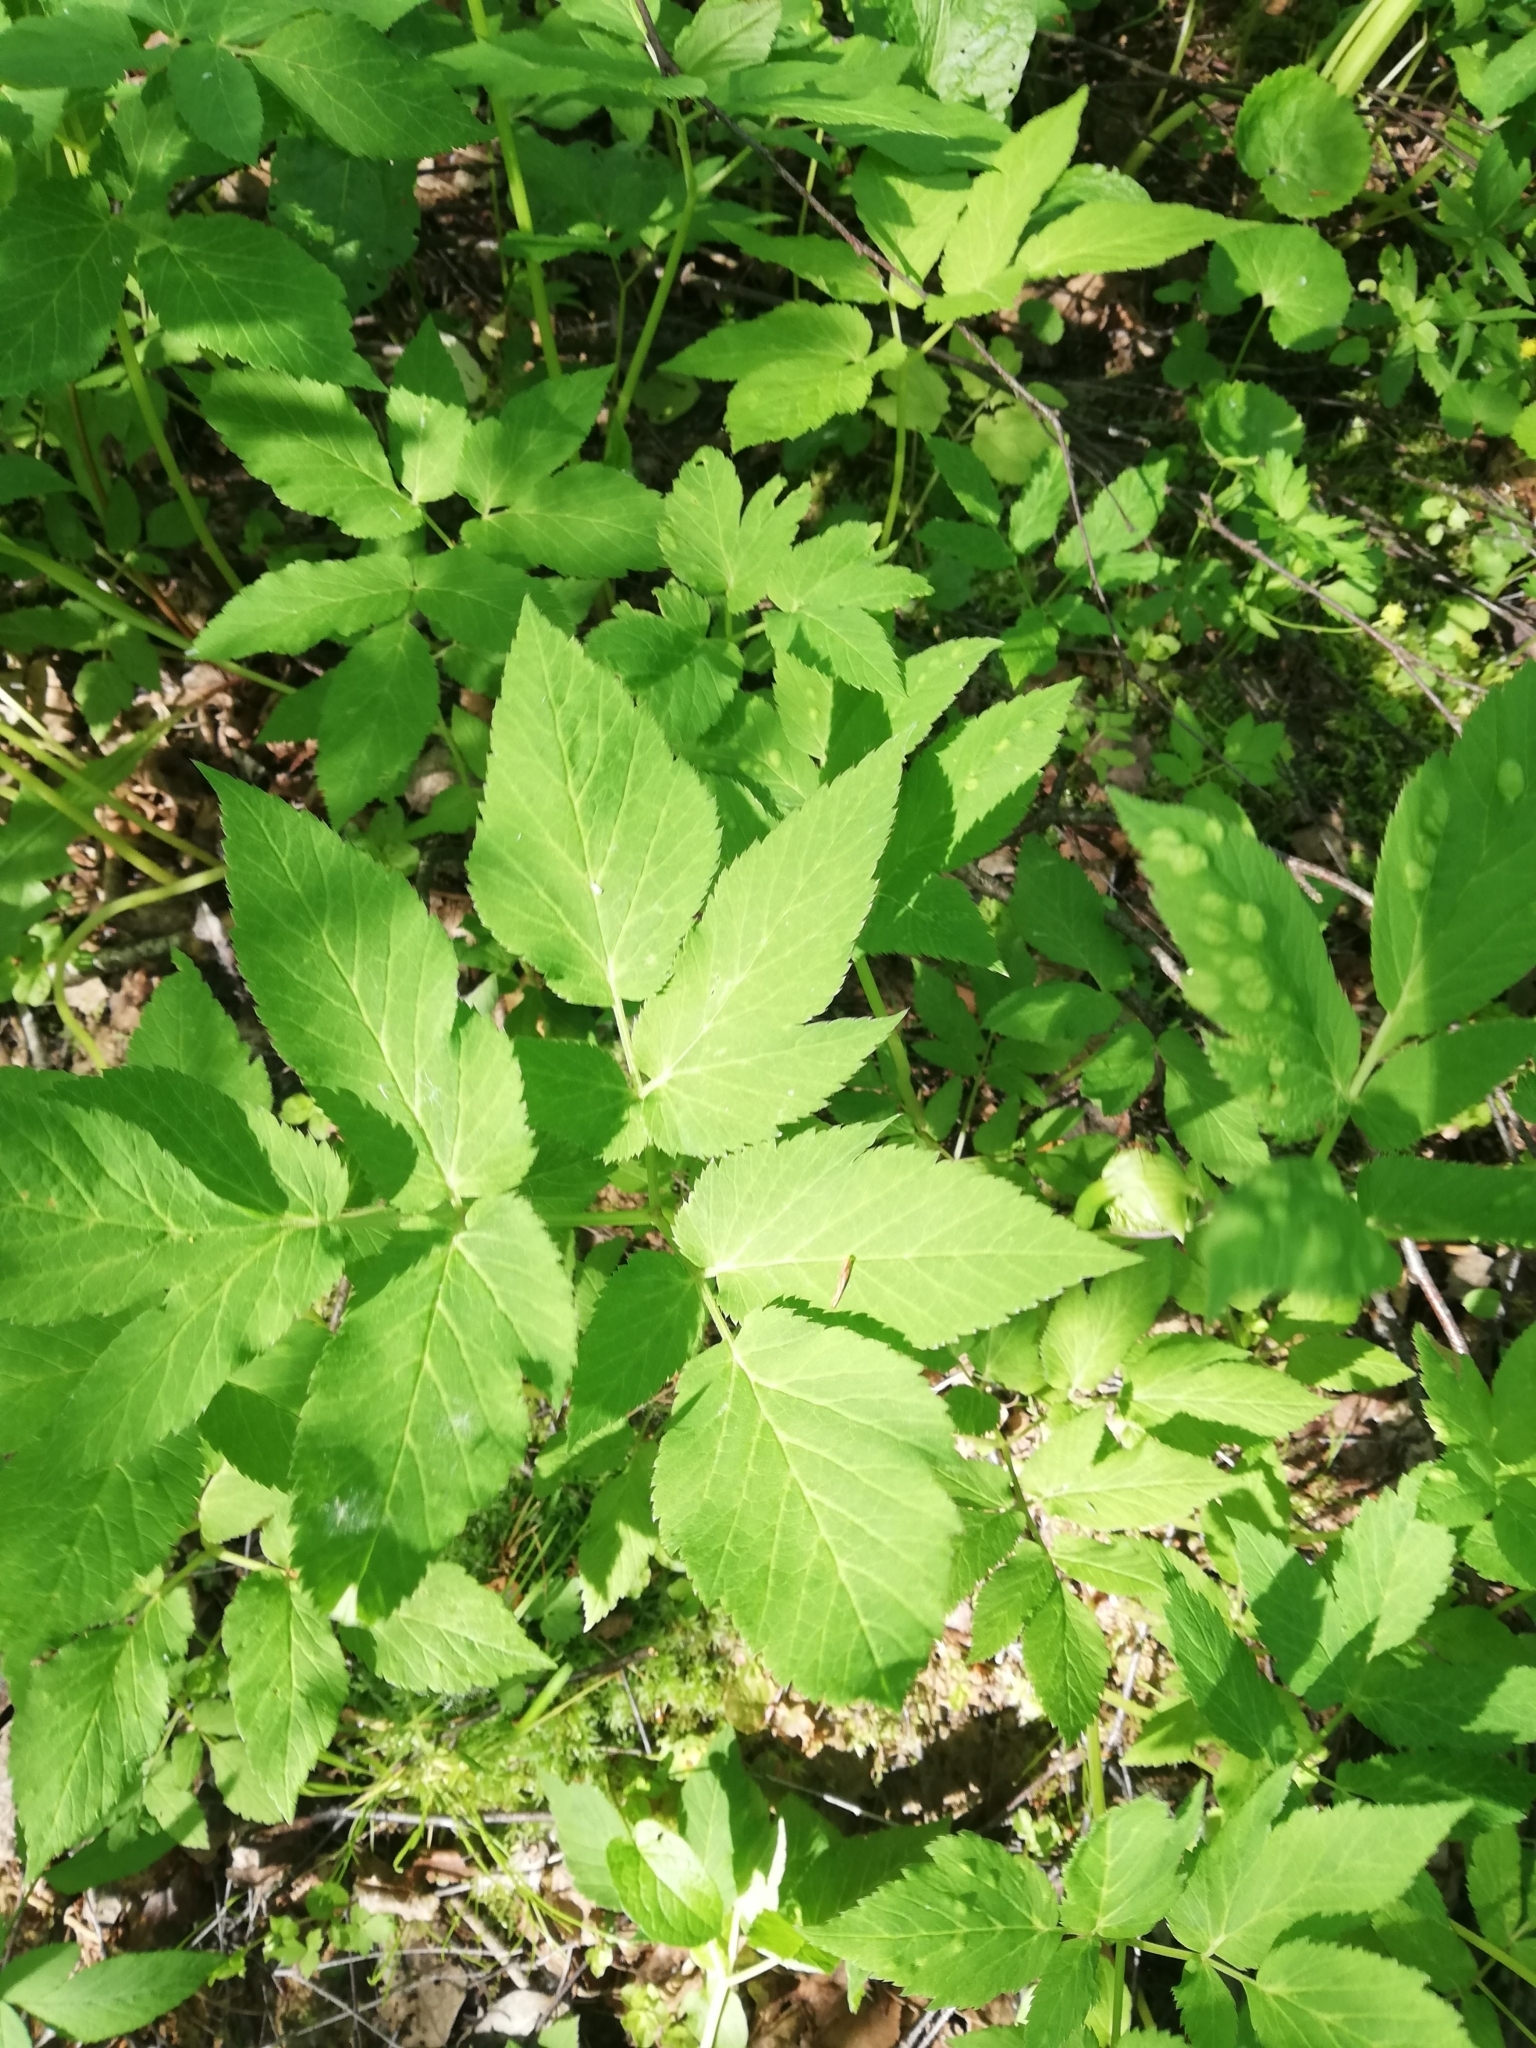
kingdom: Plantae
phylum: Tracheophyta
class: Magnoliopsida
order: Apiales
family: Apiaceae
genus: Aegopodium
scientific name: Aegopodium podagraria
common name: Ground-elder
